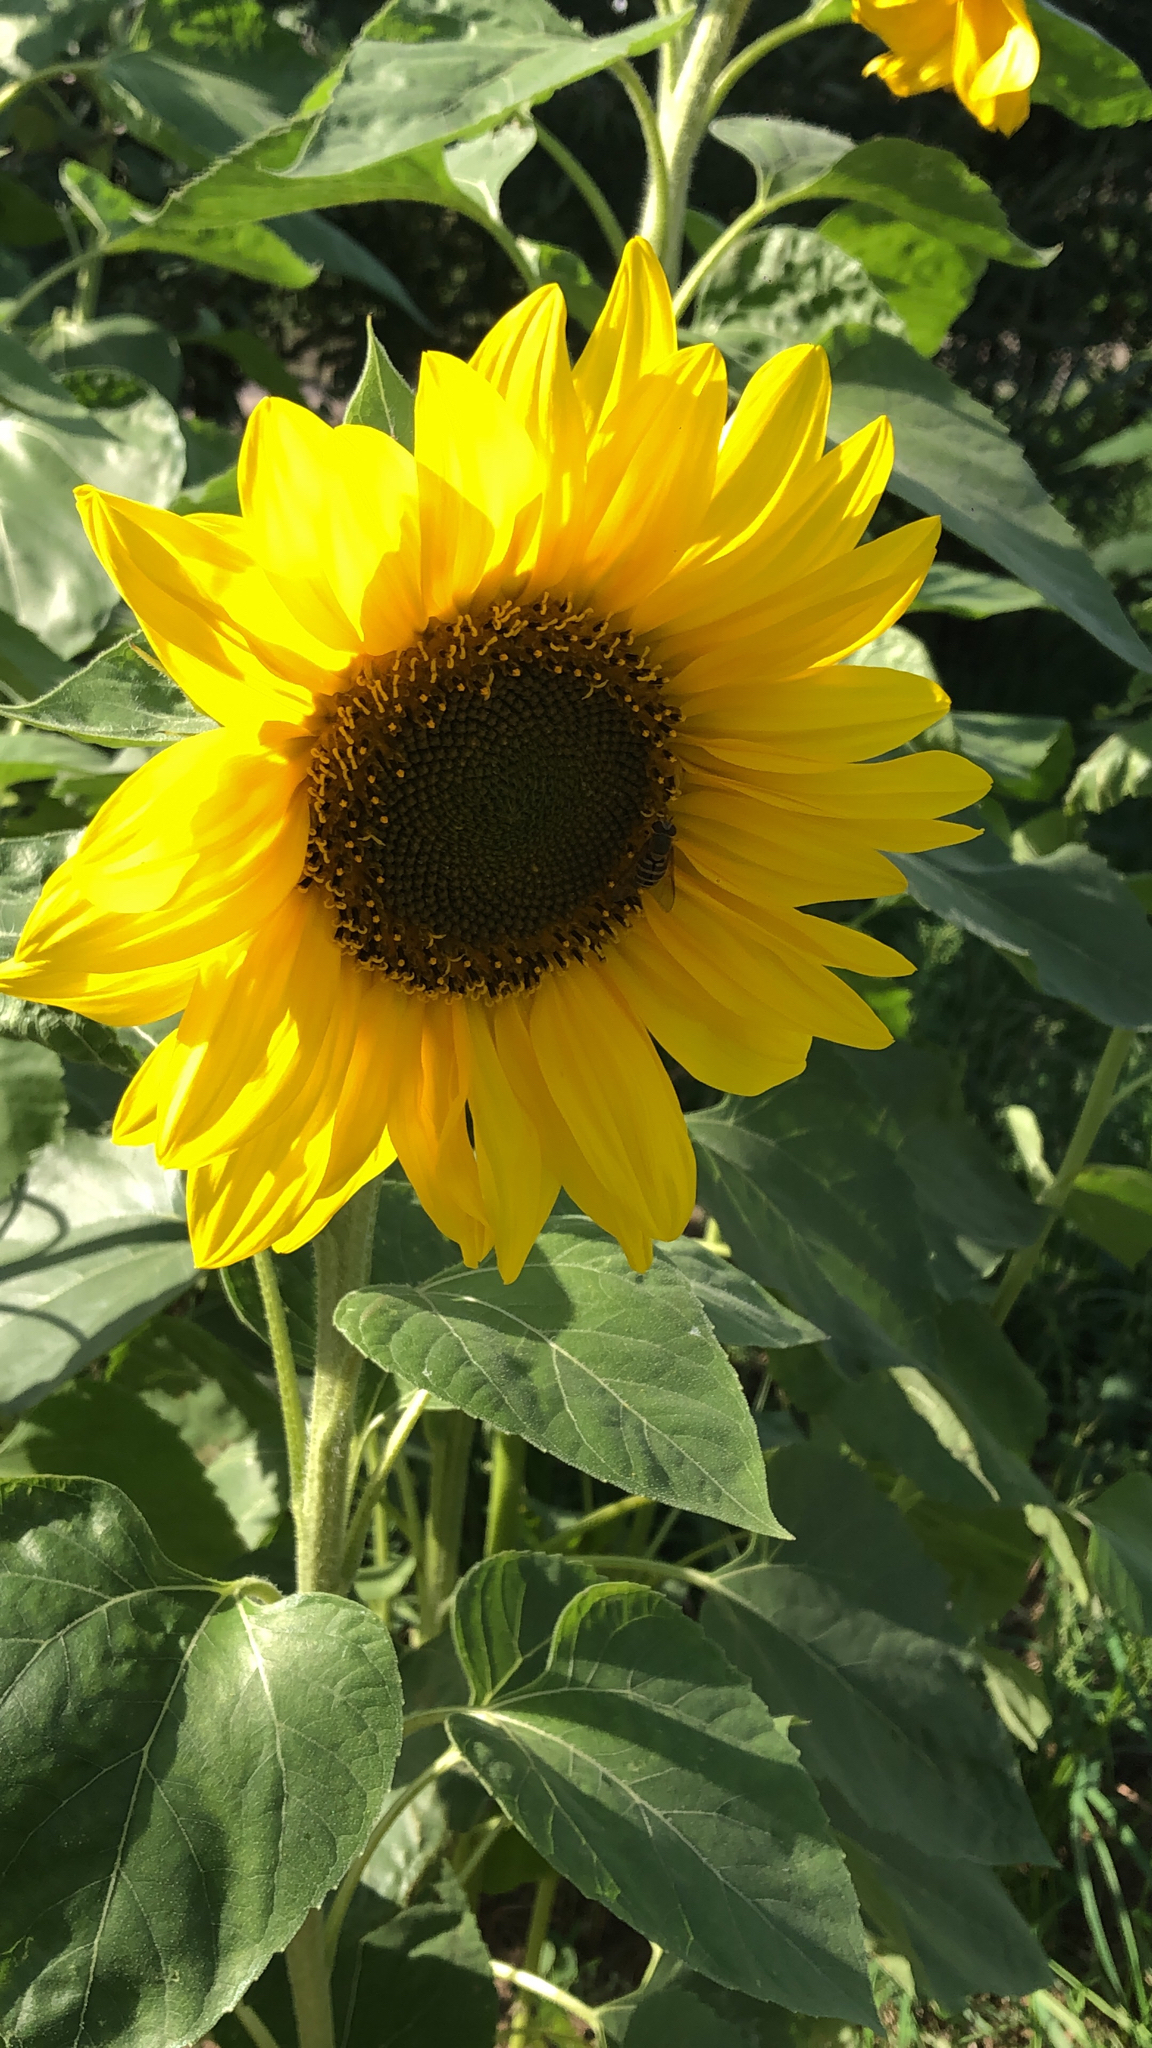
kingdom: Plantae
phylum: Tracheophyta
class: Magnoliopsida
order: Asterales
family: Asteraceae
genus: Helianthus
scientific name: Helianthus annuus
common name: Sunflower
